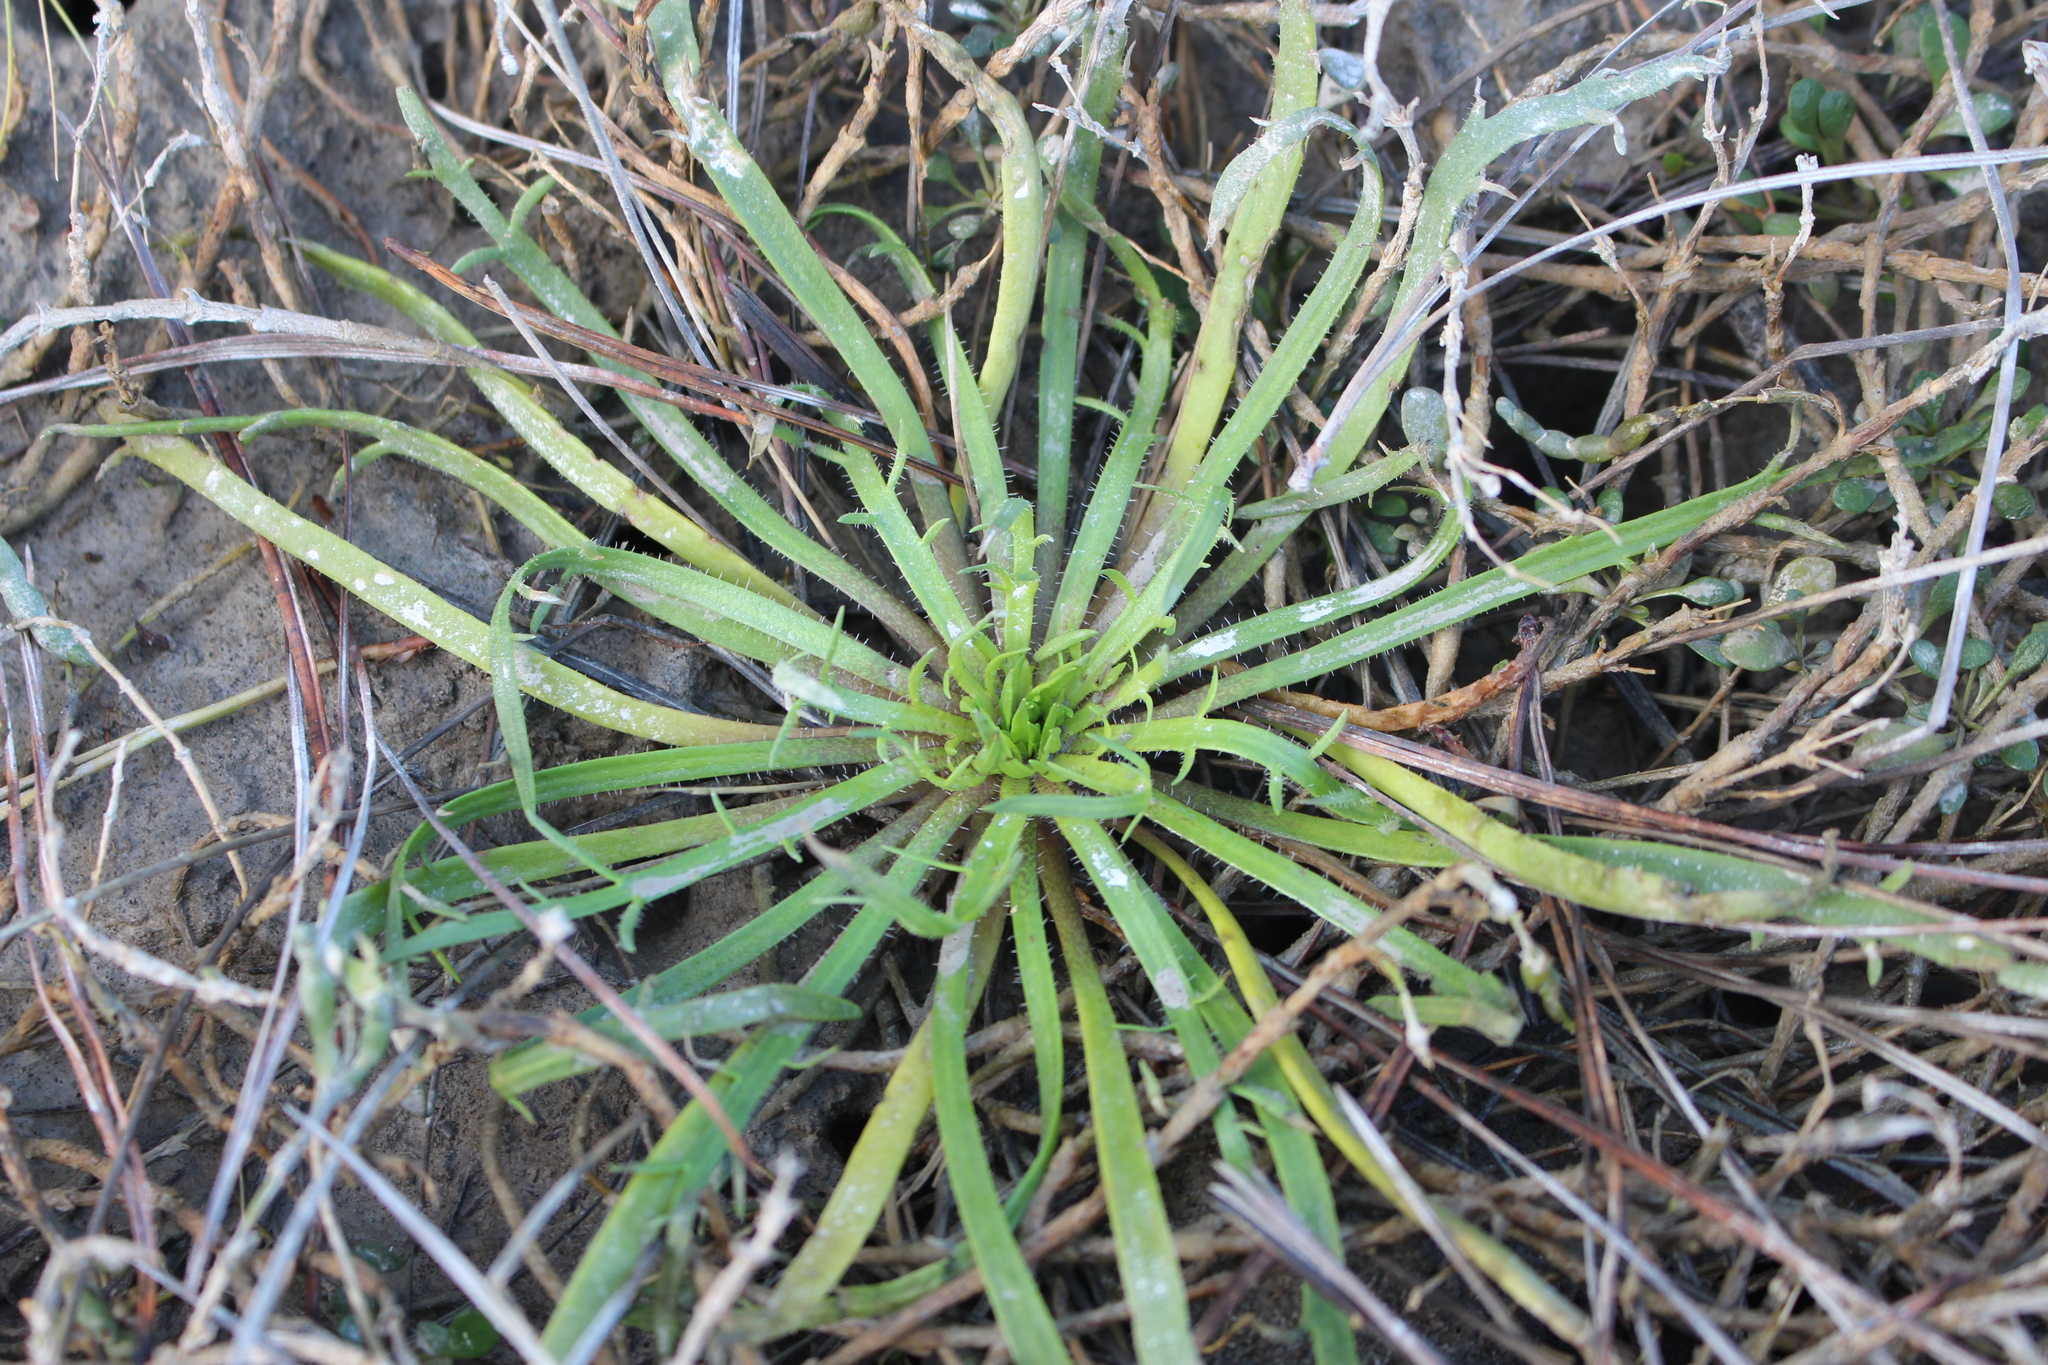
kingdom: Plantae
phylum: Tracheophyta
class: Magnoliopsida
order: Lamiales
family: Plantaginaceae
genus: Plantago
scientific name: Plantago coronopus
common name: Buck's-horn plantain
